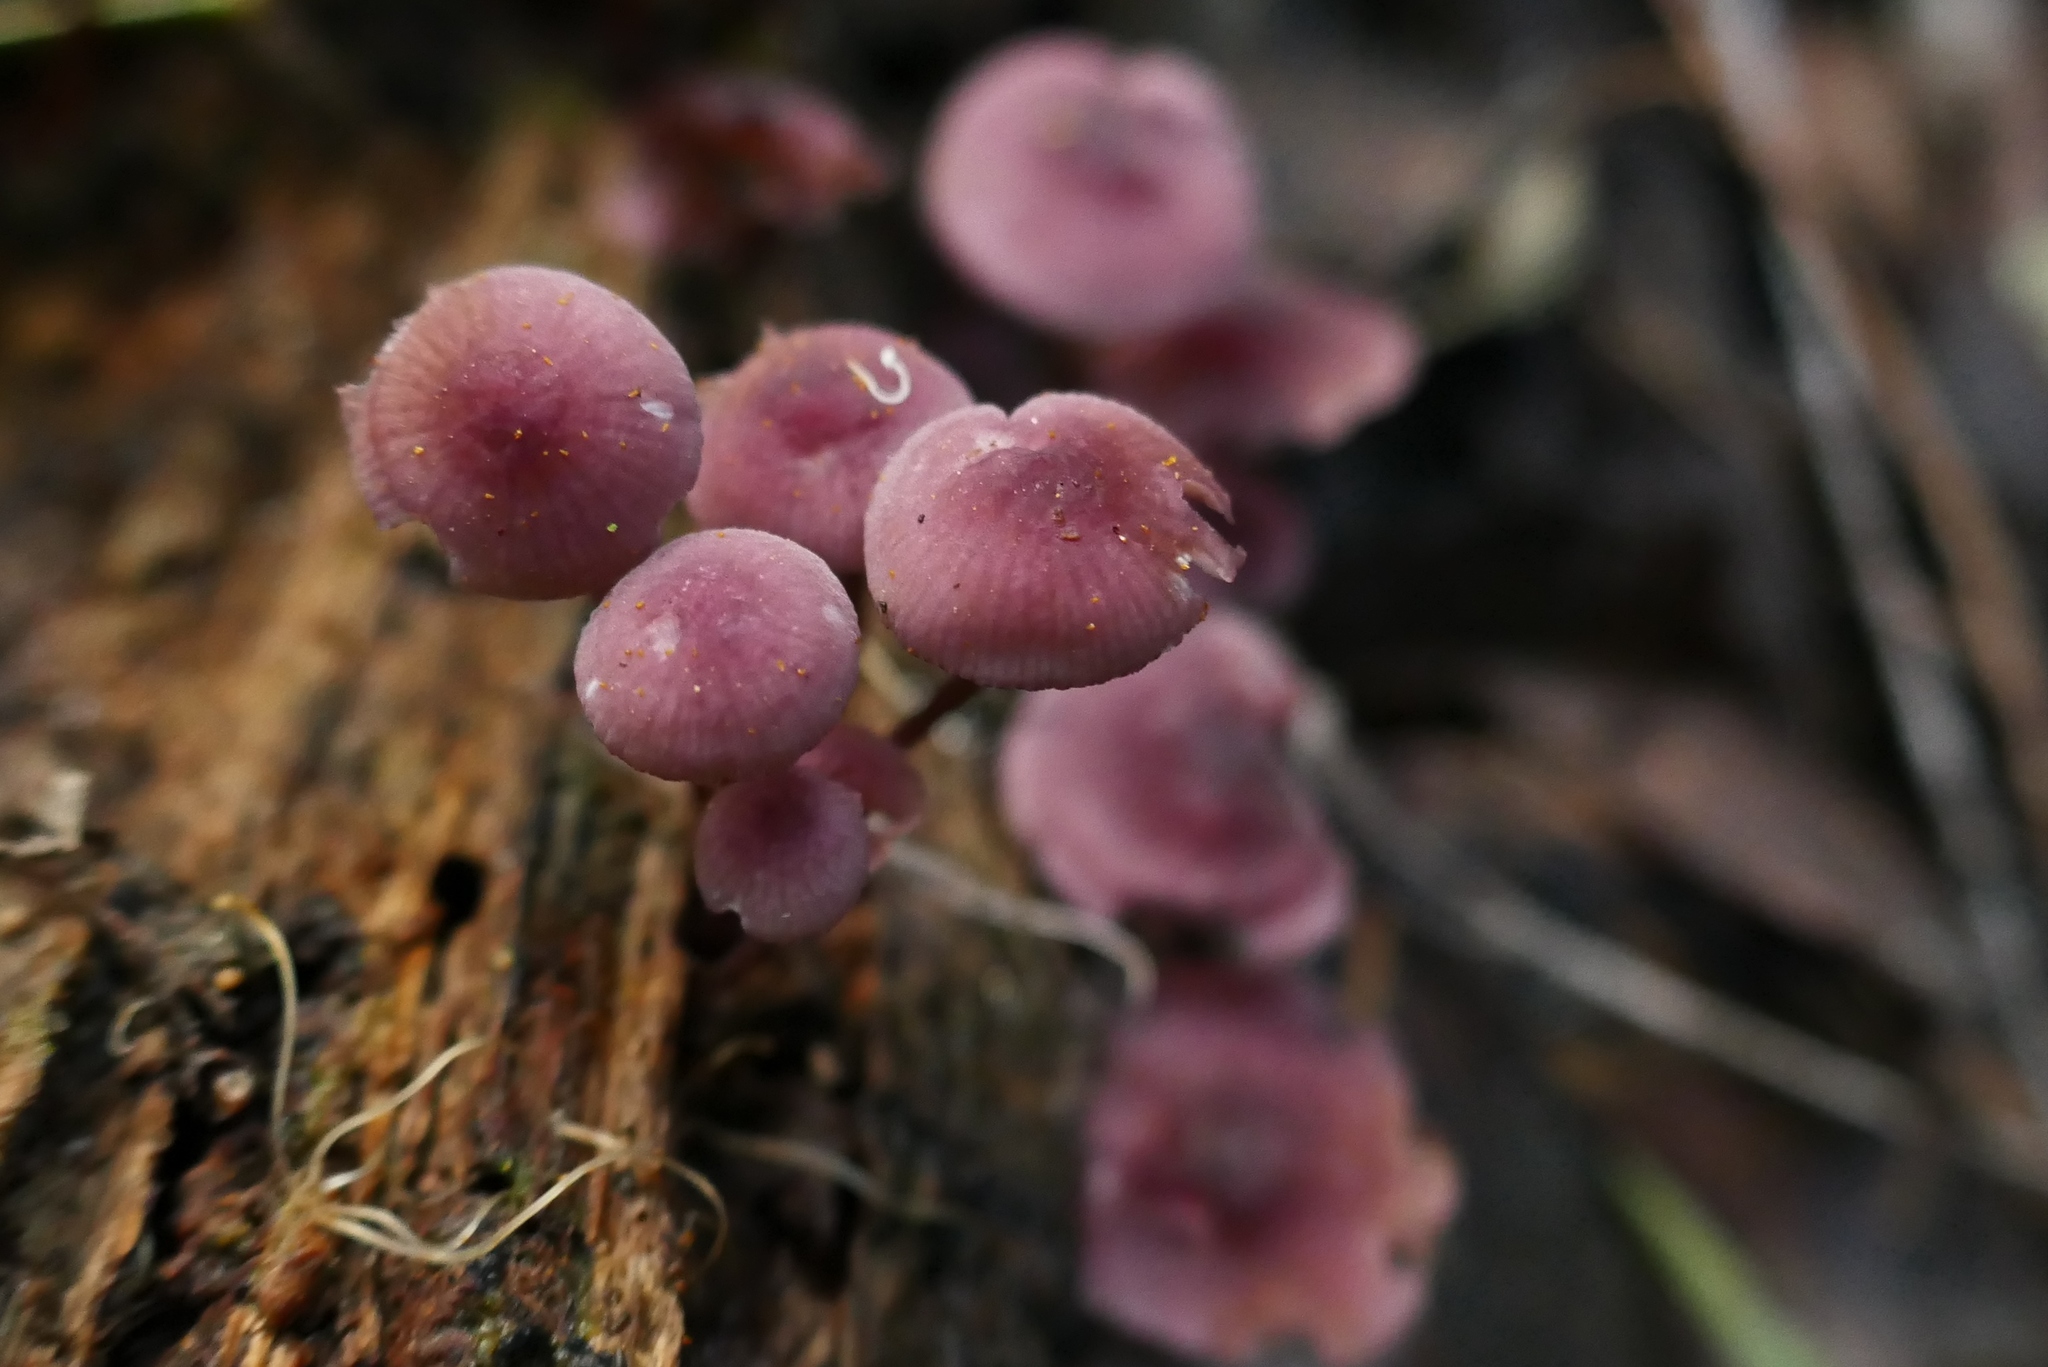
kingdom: Fungi
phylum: Basidiomycota
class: Agaricomycetes
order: Agaricales
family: Mycenaceae
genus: Mycena
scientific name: Mycena kurramulla
